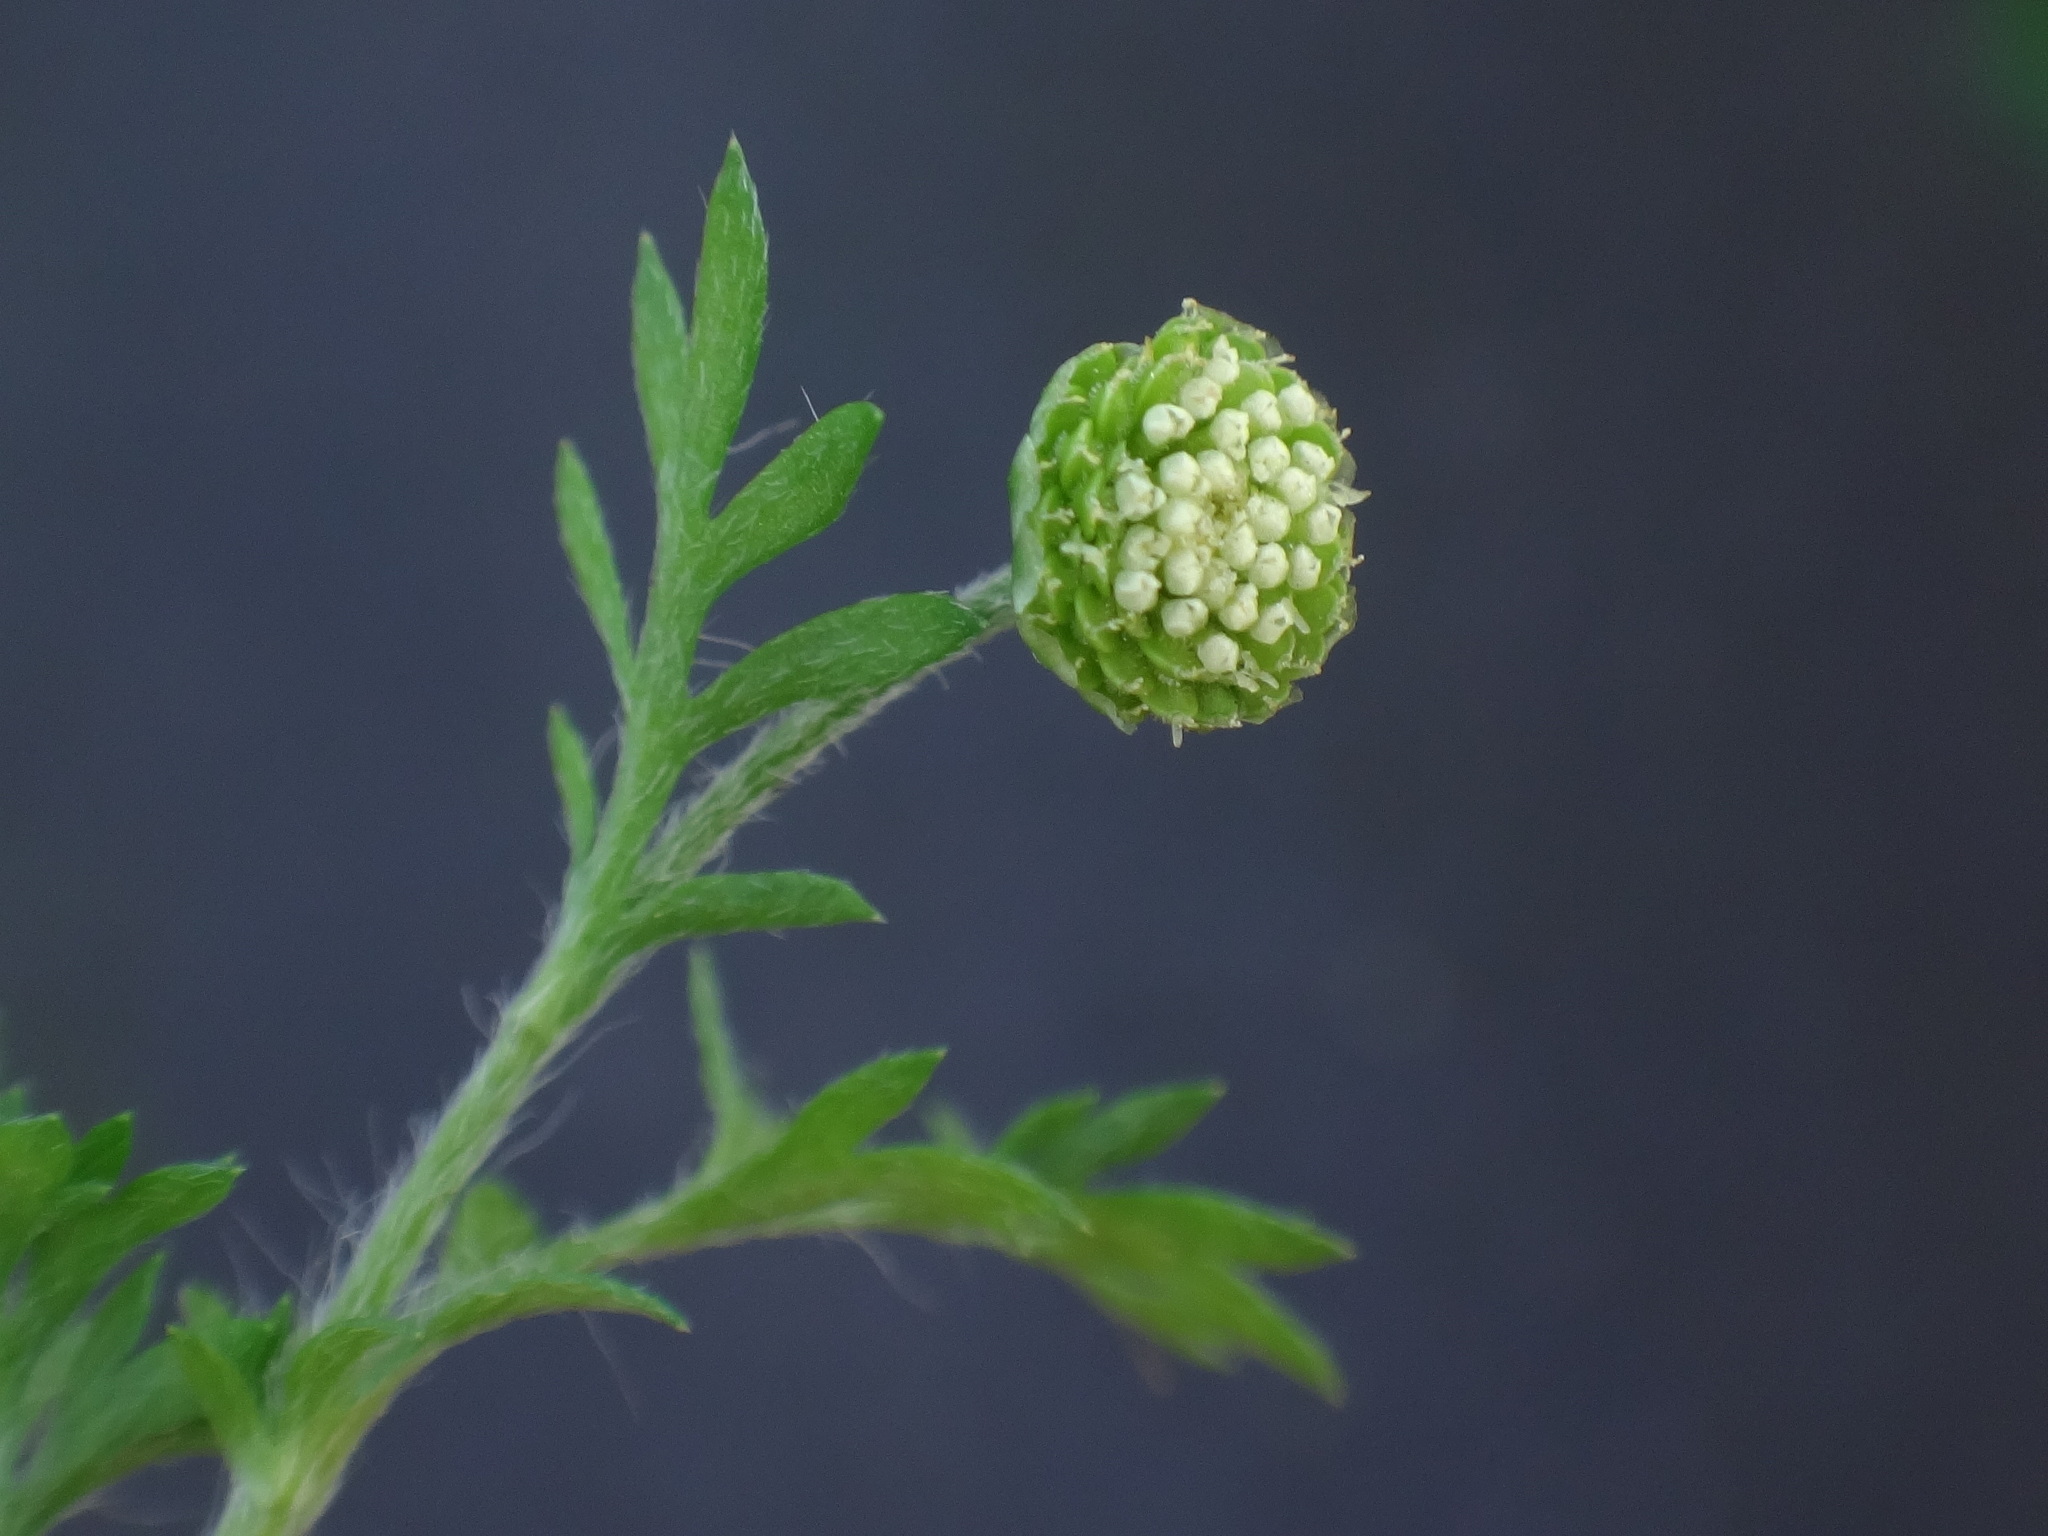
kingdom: Plantae
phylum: Tracheophyta
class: Magnoliopsida
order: Asterales
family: Asteraceae
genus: Cotula
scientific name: Cotula australis
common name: Australian waterbuttons
